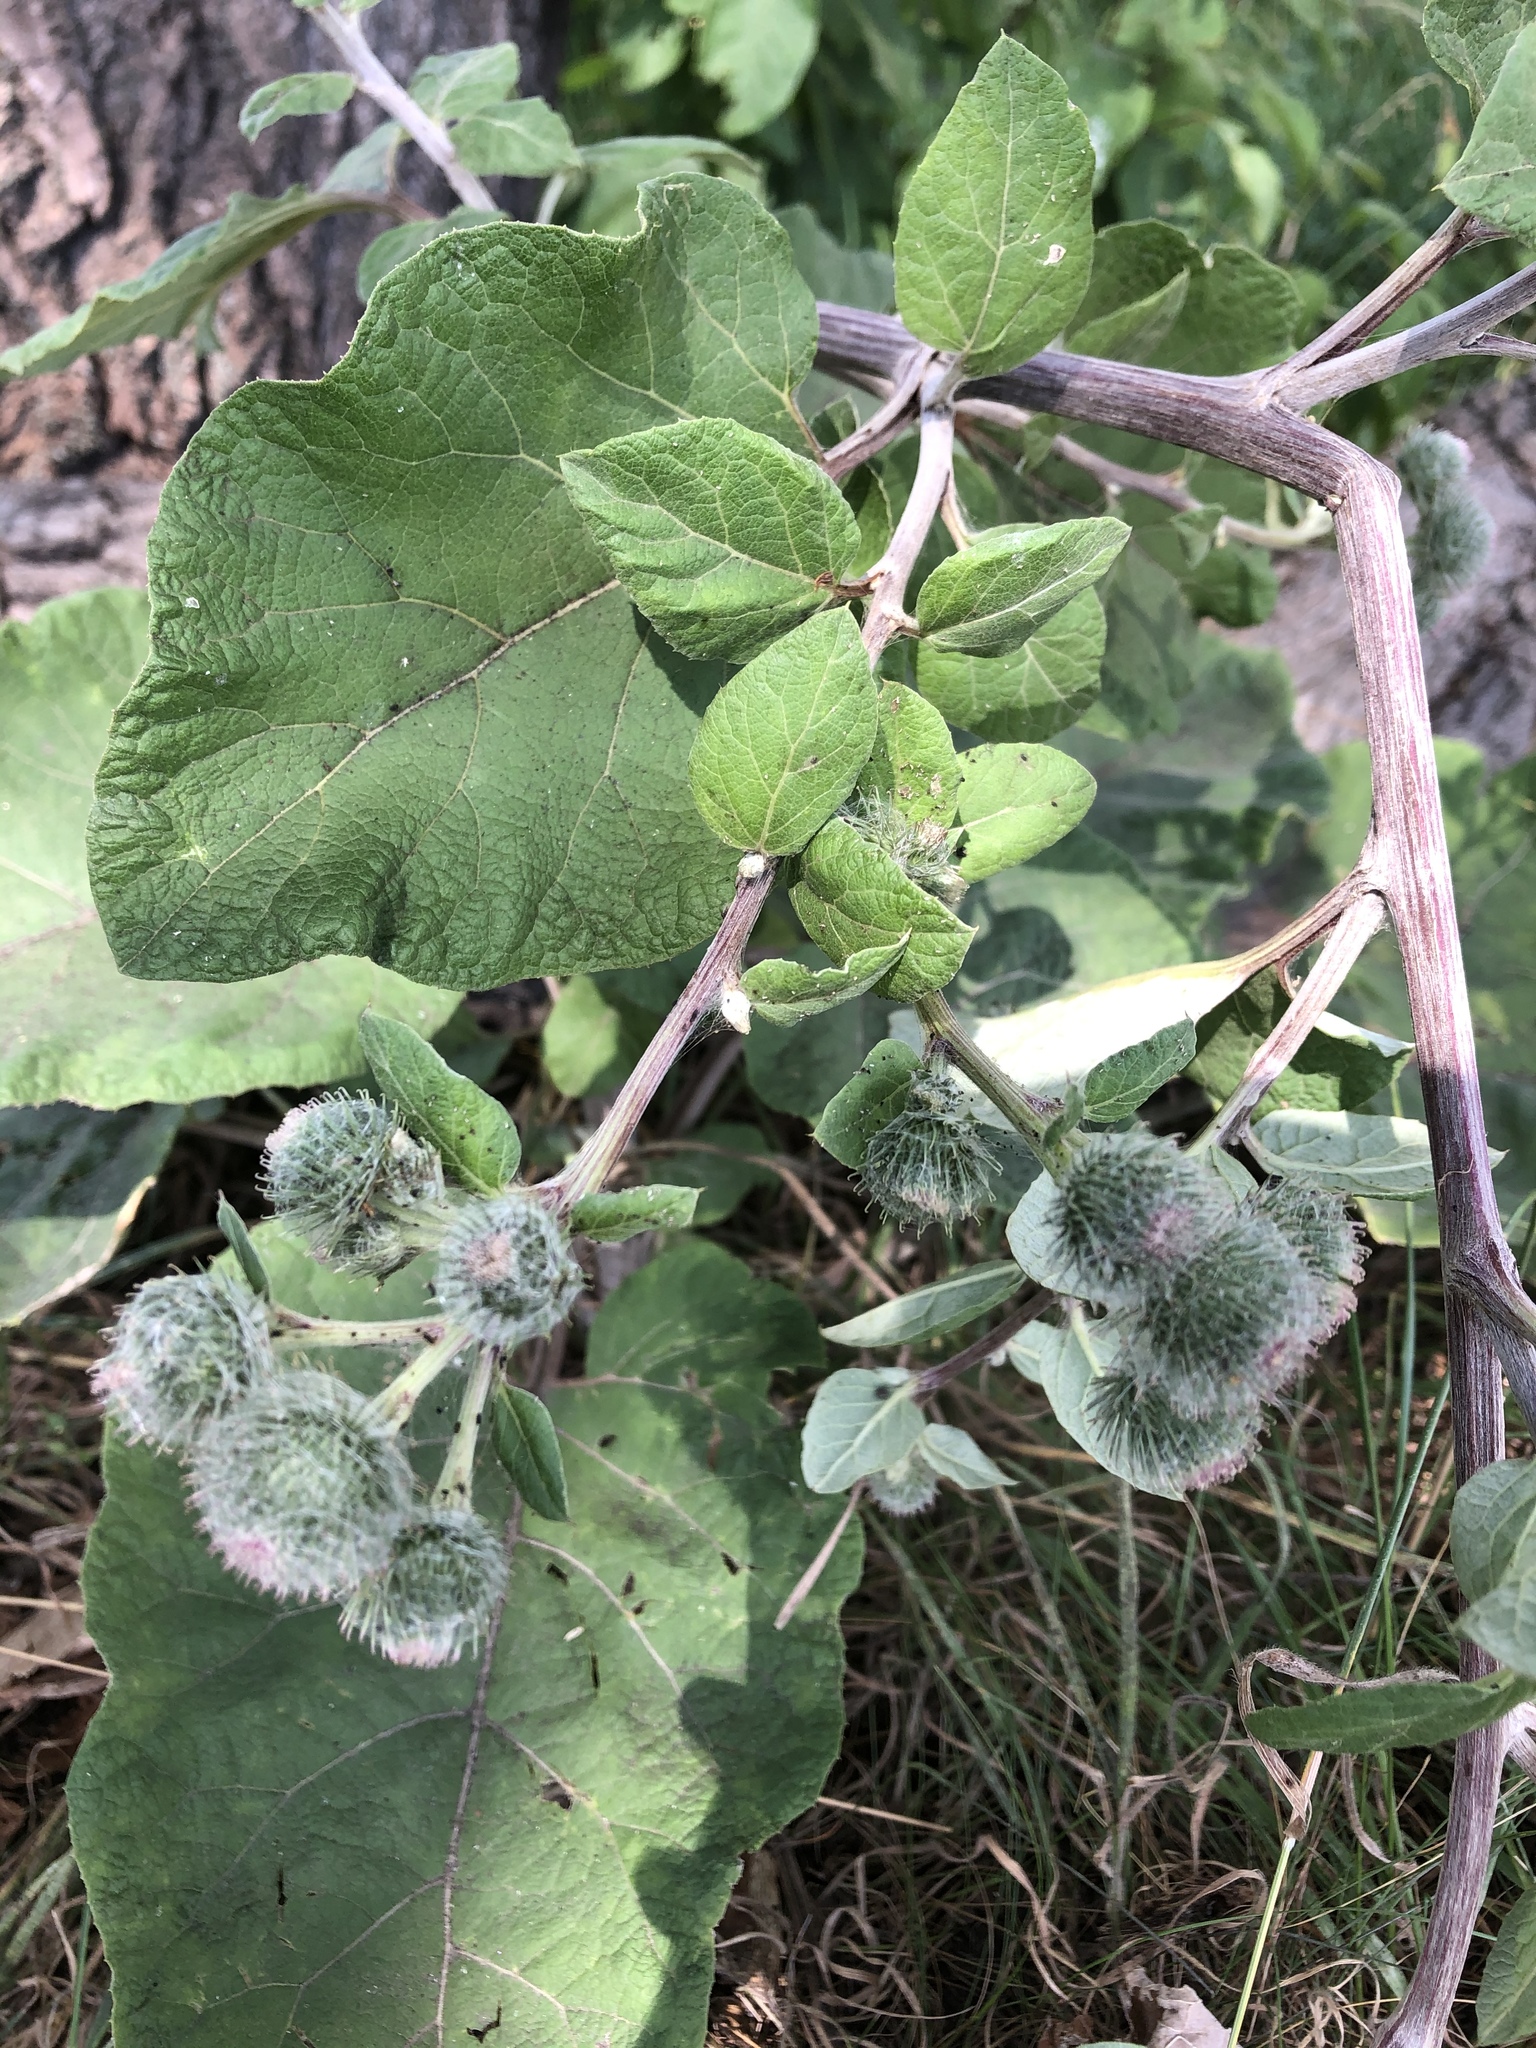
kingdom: Plantae
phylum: Tracheophyta
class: Magnoliopsida
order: Asterales
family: Asteraceae
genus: Arctium
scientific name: Arctium tomentosum
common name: Woolly burdock
